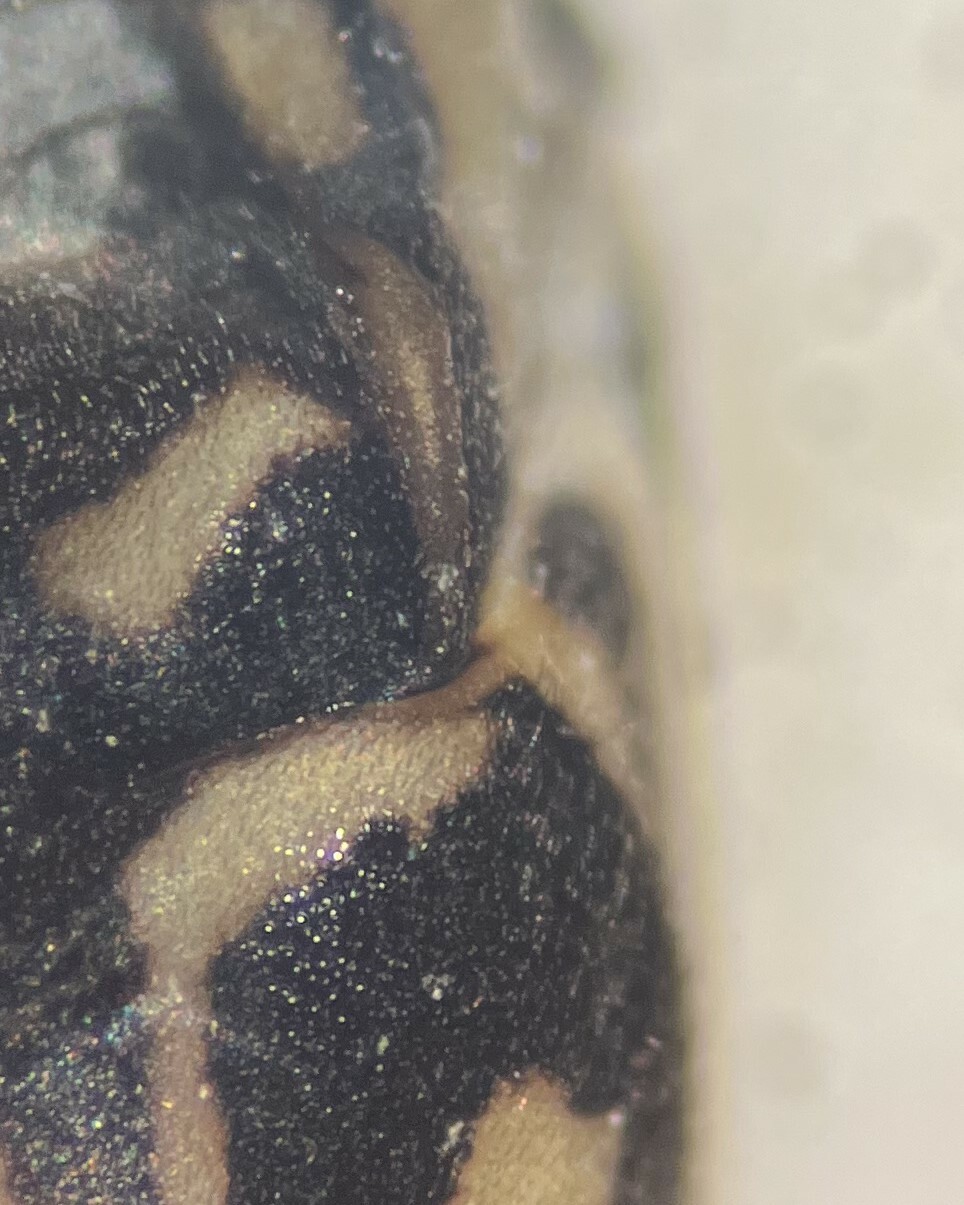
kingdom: Animalia
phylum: Arthropoda
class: Insecta
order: Hemiptera
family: Gerridae
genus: Trepobates
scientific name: Trepobates subnitidus
